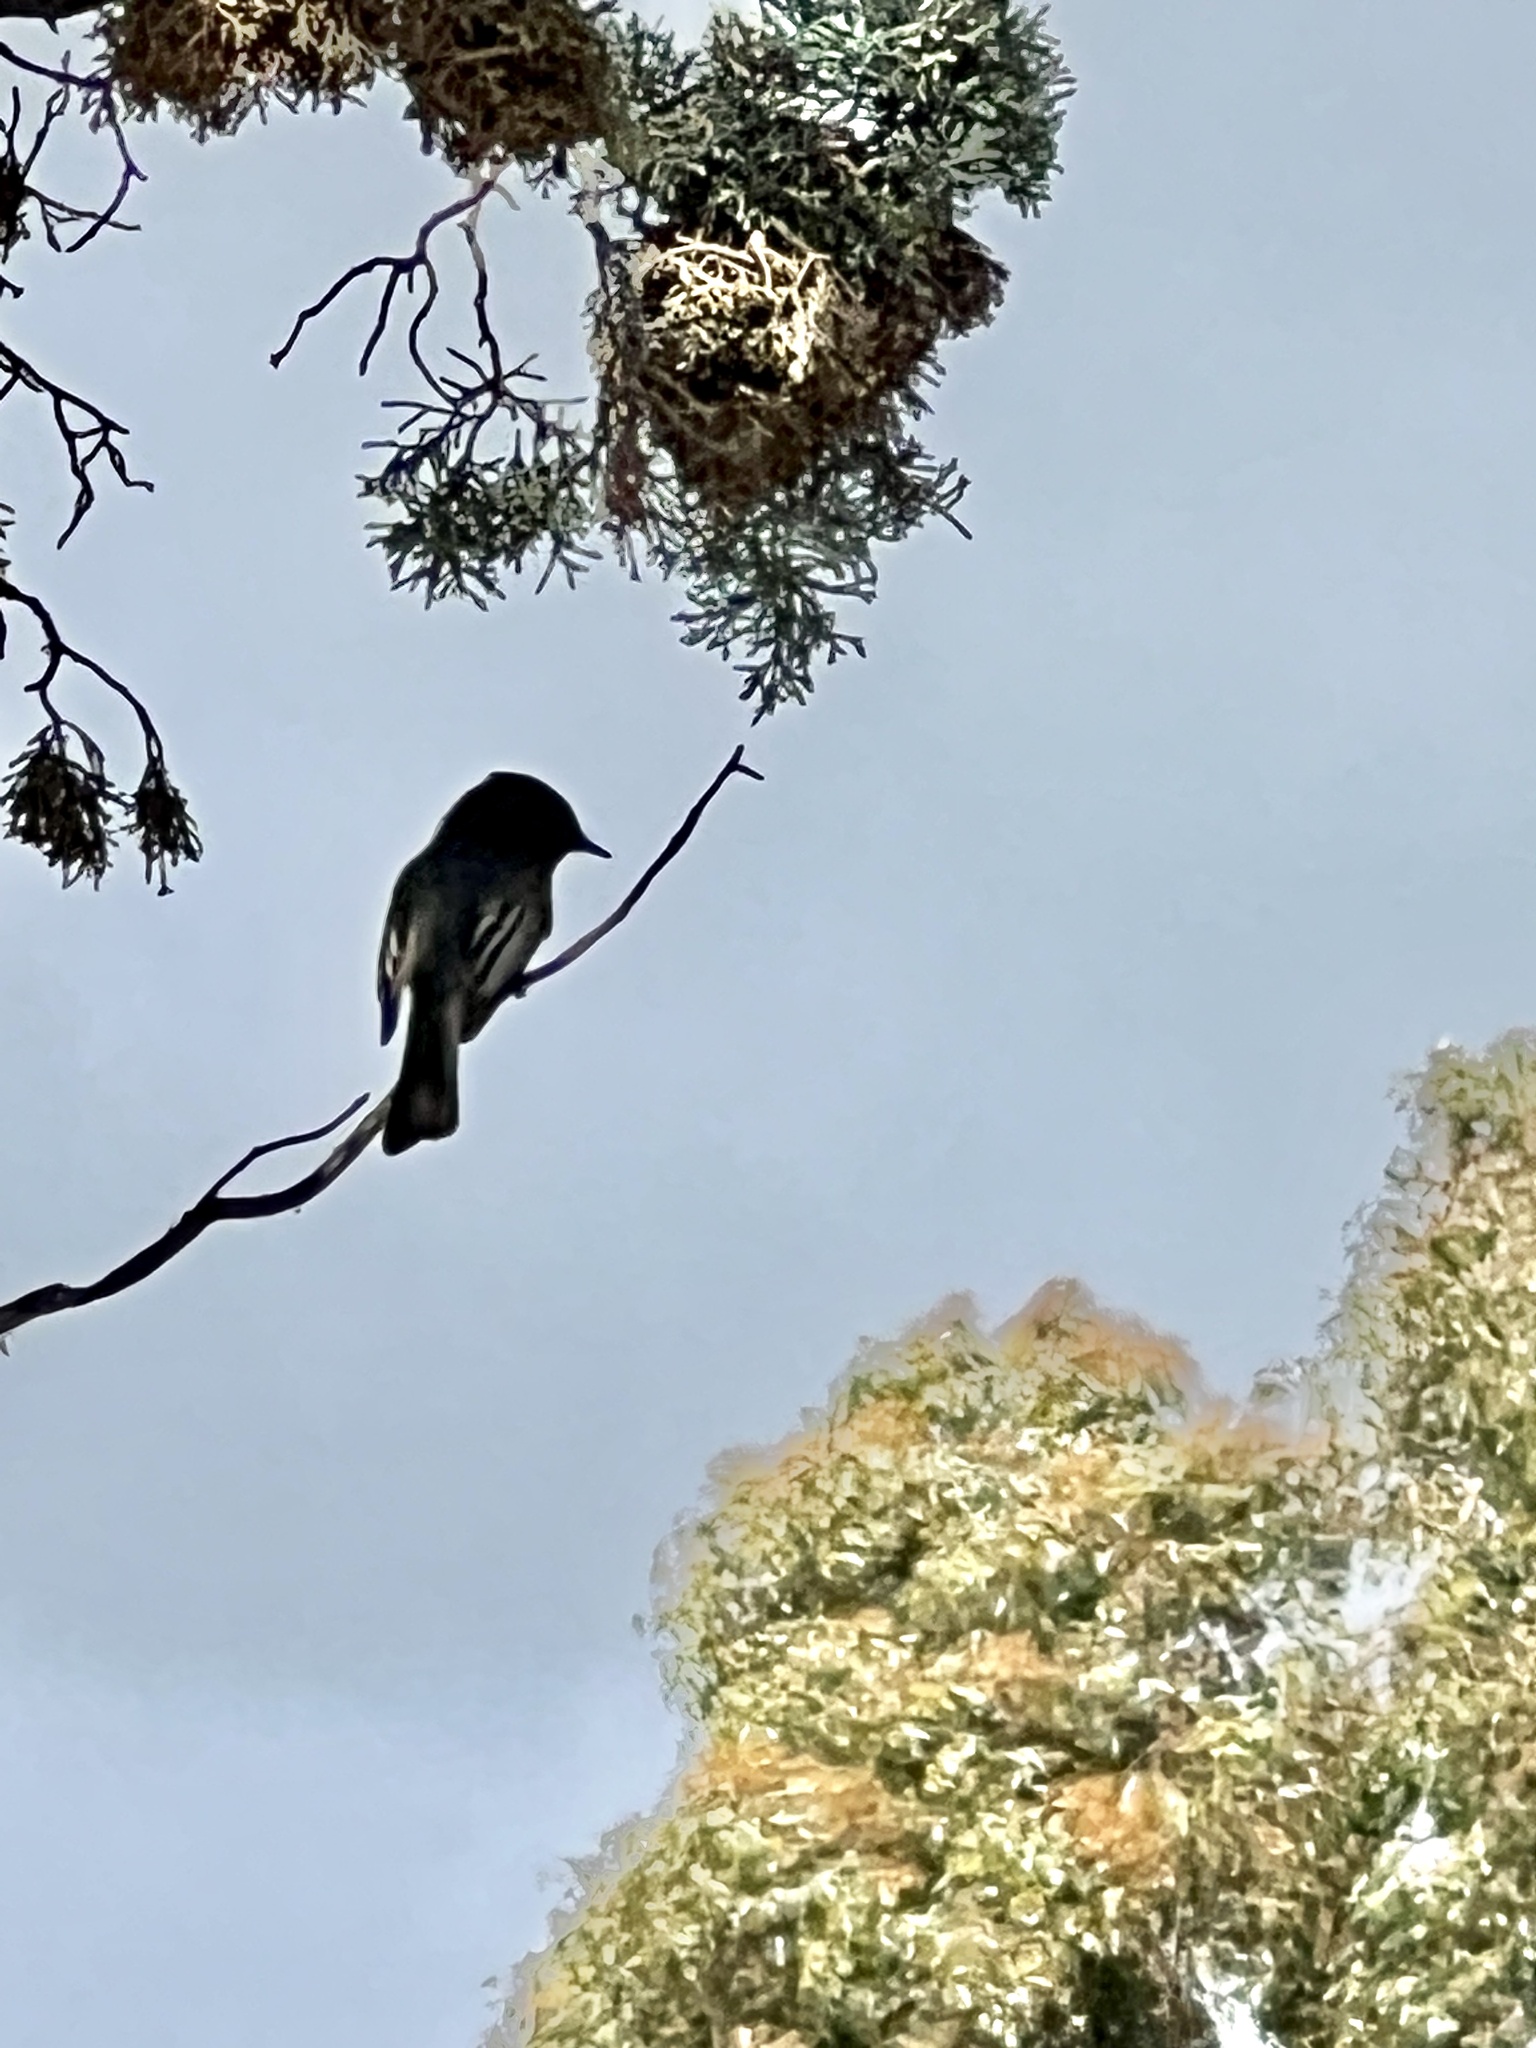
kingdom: Animalia
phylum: Chordata
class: Aves
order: Passeriformes
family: Tyrannidae
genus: Sayornis
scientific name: Sayornis nigricans
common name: Black phoebe
